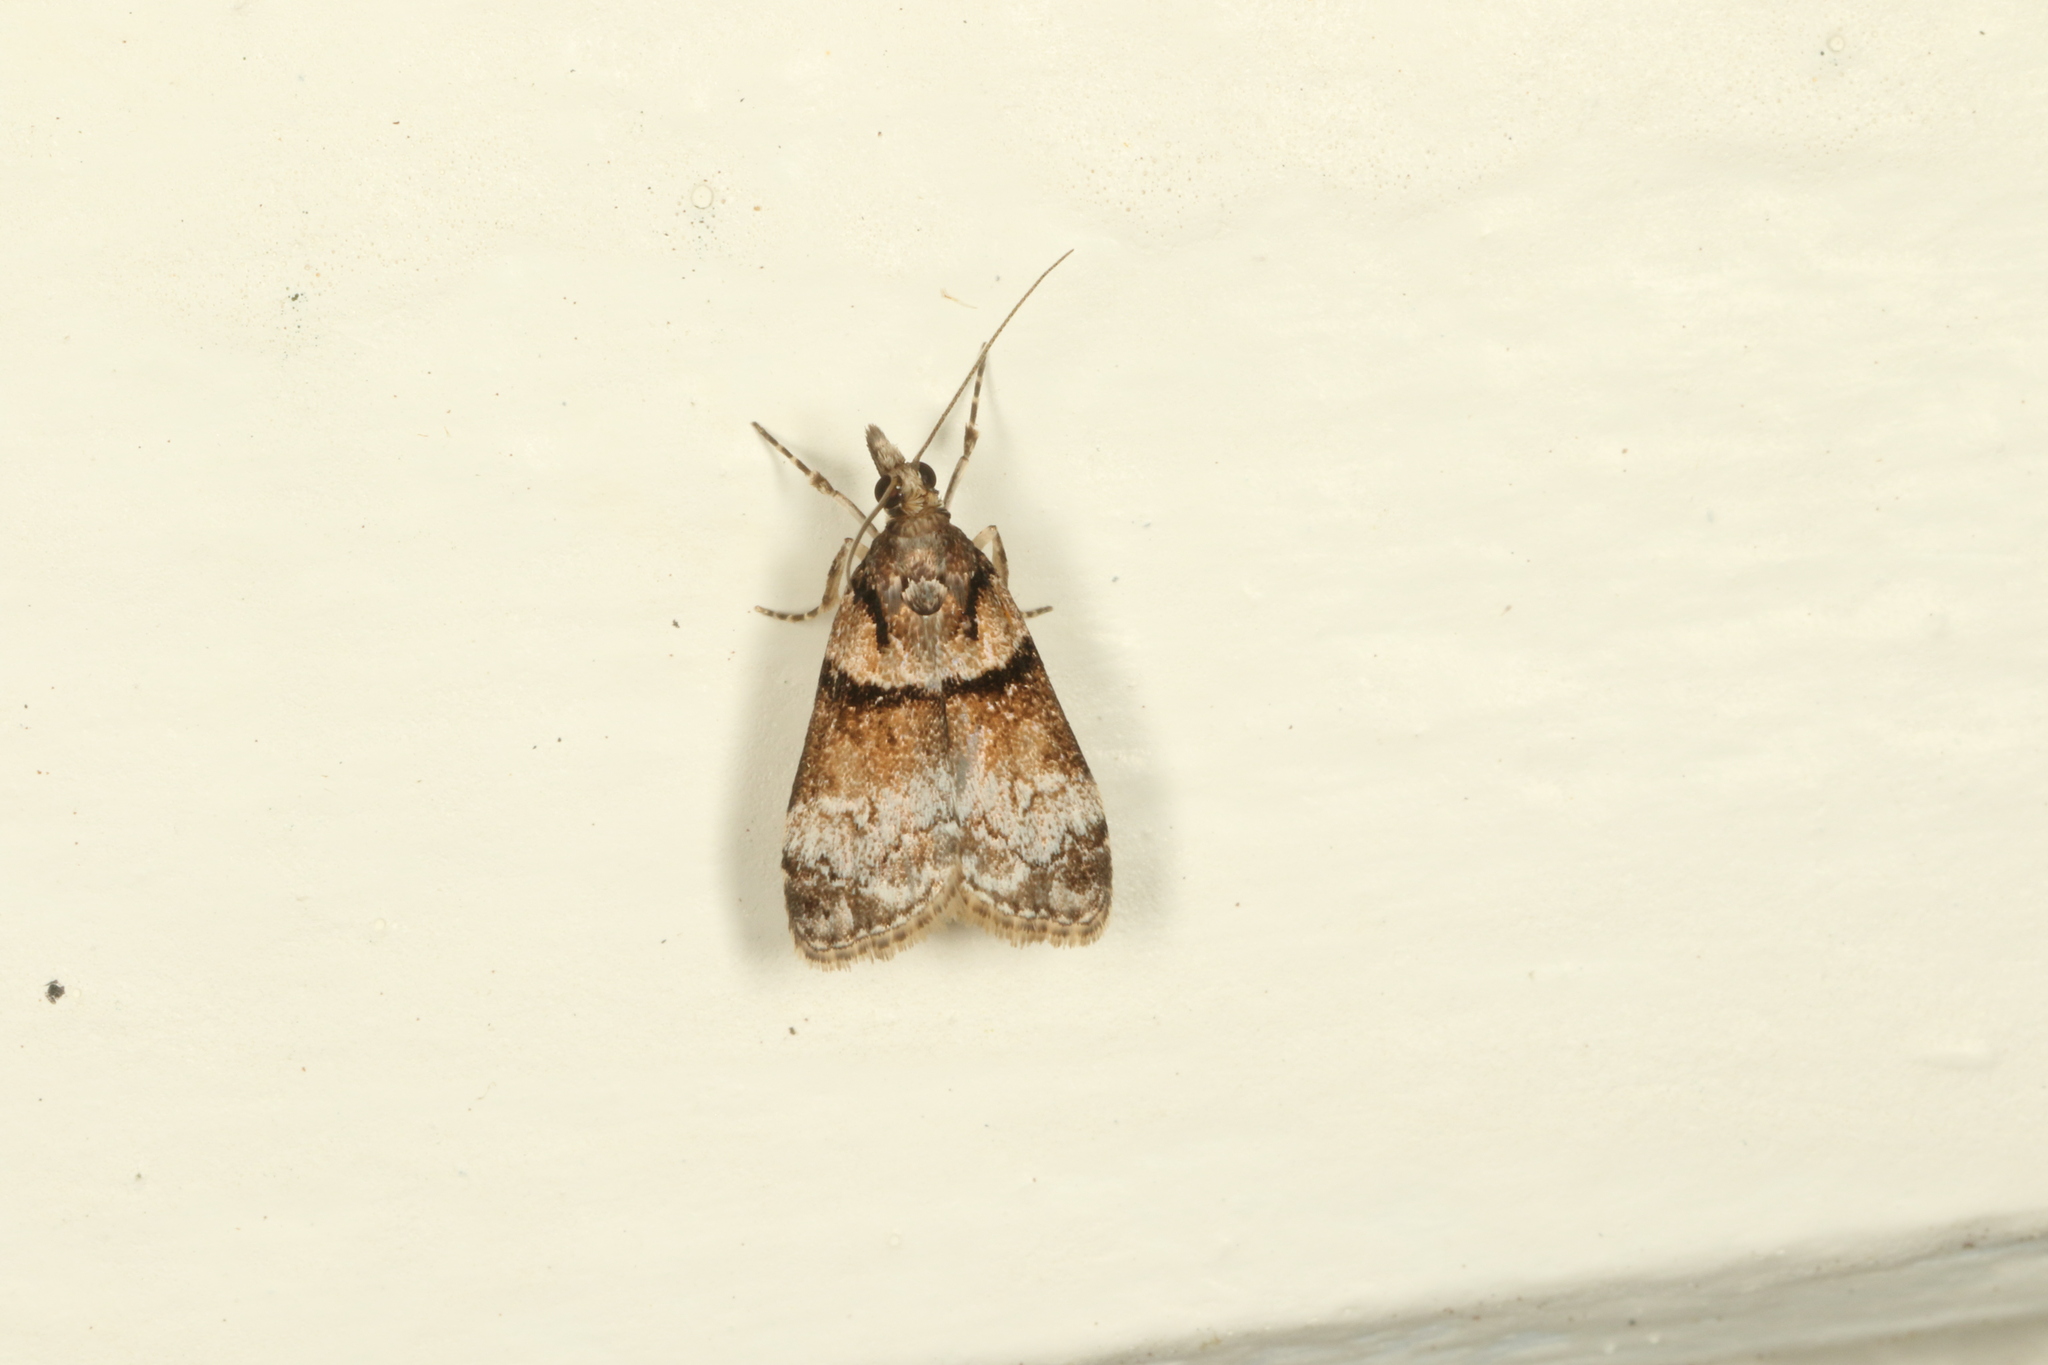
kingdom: Animalia
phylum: Arthropoda
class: Insecta
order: Lepidoptera
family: Crambidae
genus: Eudonia
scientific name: Eudonia colpota
